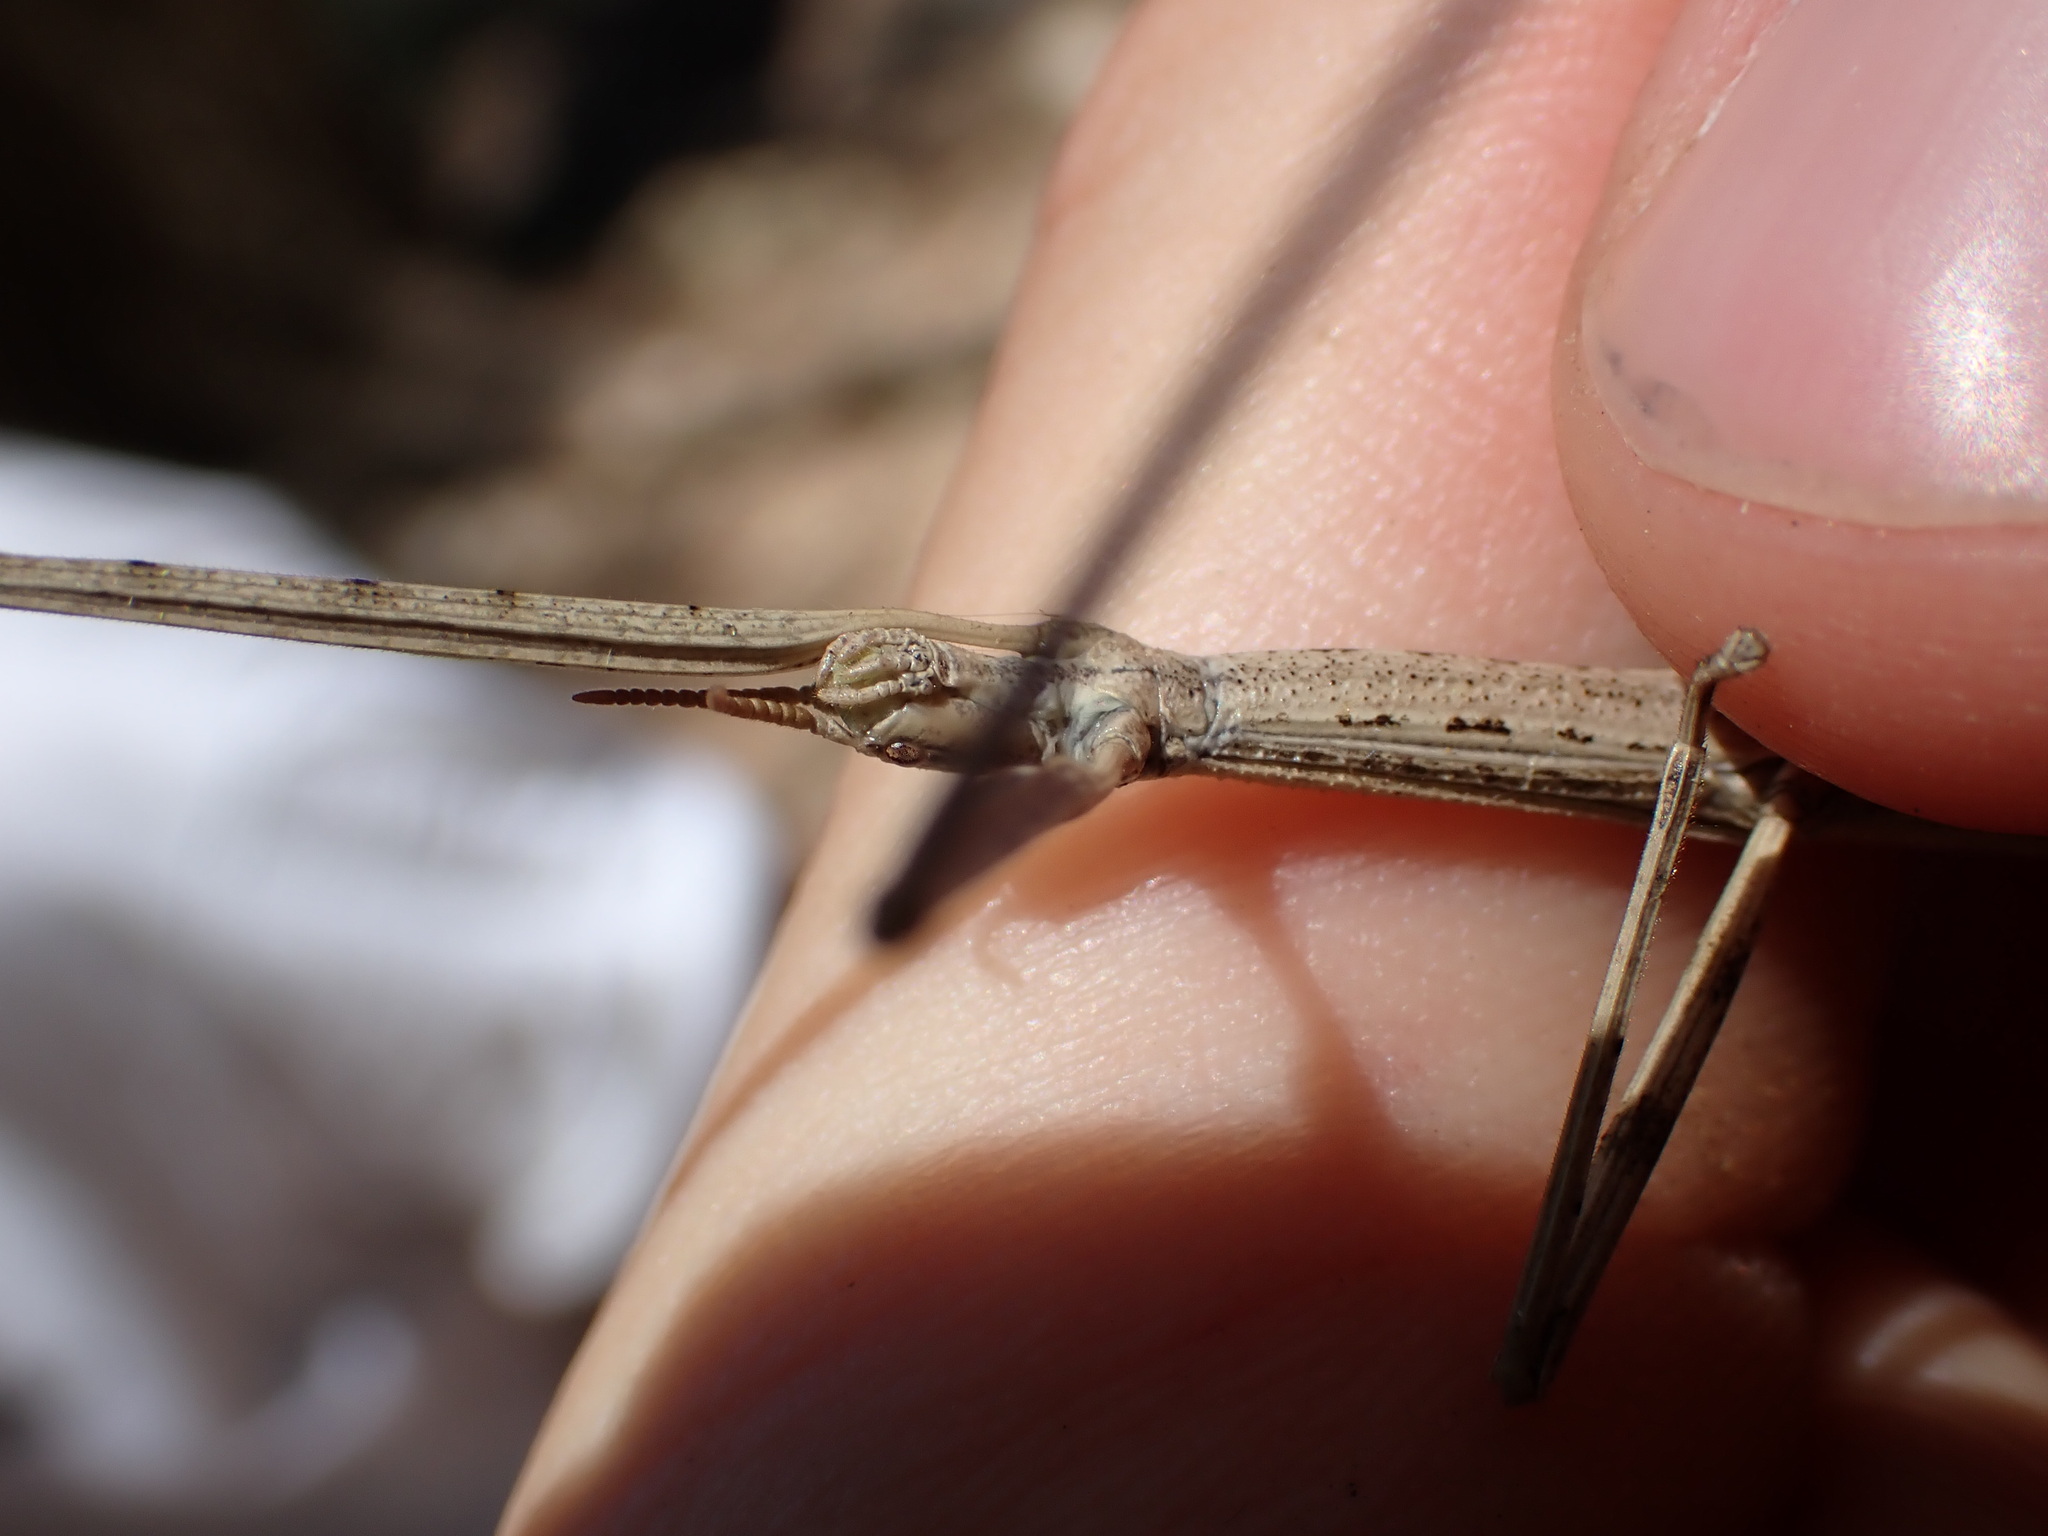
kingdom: Animalia
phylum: Arthropoda
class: Insecta
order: Phasmida
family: Bacillidae
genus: Clonopsis
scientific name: Clonopsis gallica
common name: French stick insect
